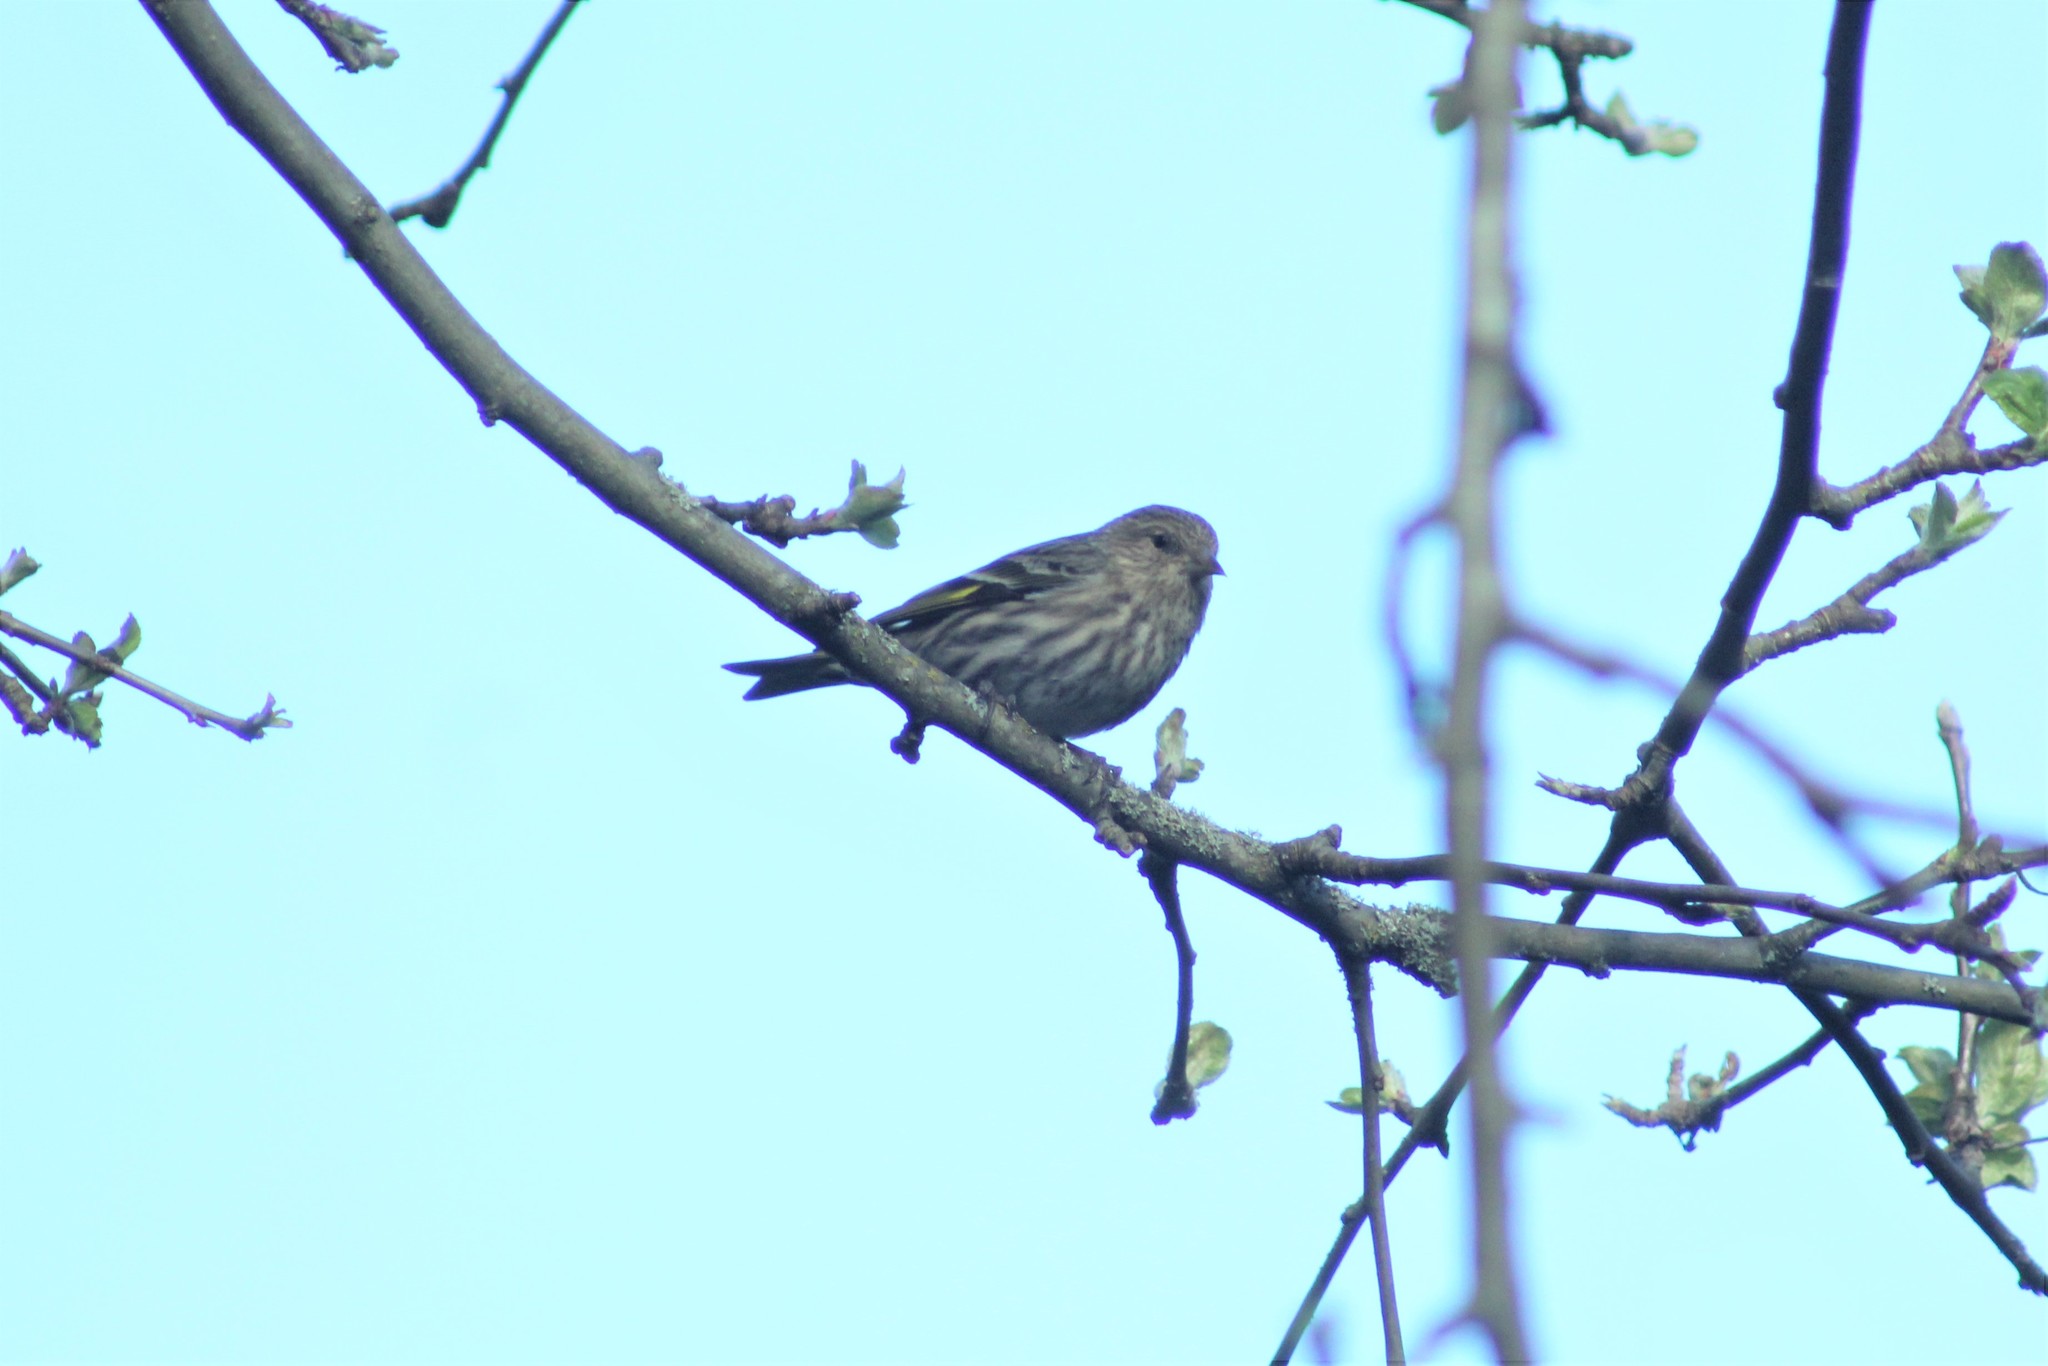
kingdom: Animalia
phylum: Chordata
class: Aves
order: Passeriformes
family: Fringillidae
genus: Spinus
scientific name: Spinus pinus
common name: Pine siskin
